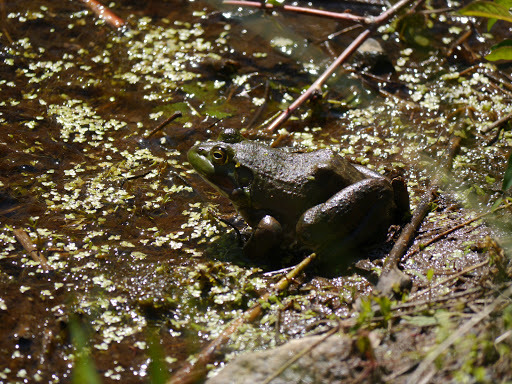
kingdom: Animalia
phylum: Chordata
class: Amphibia
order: Anura
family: Ranidae
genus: Lithobates
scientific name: Lithobates catesbeianus
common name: American bullfrog
